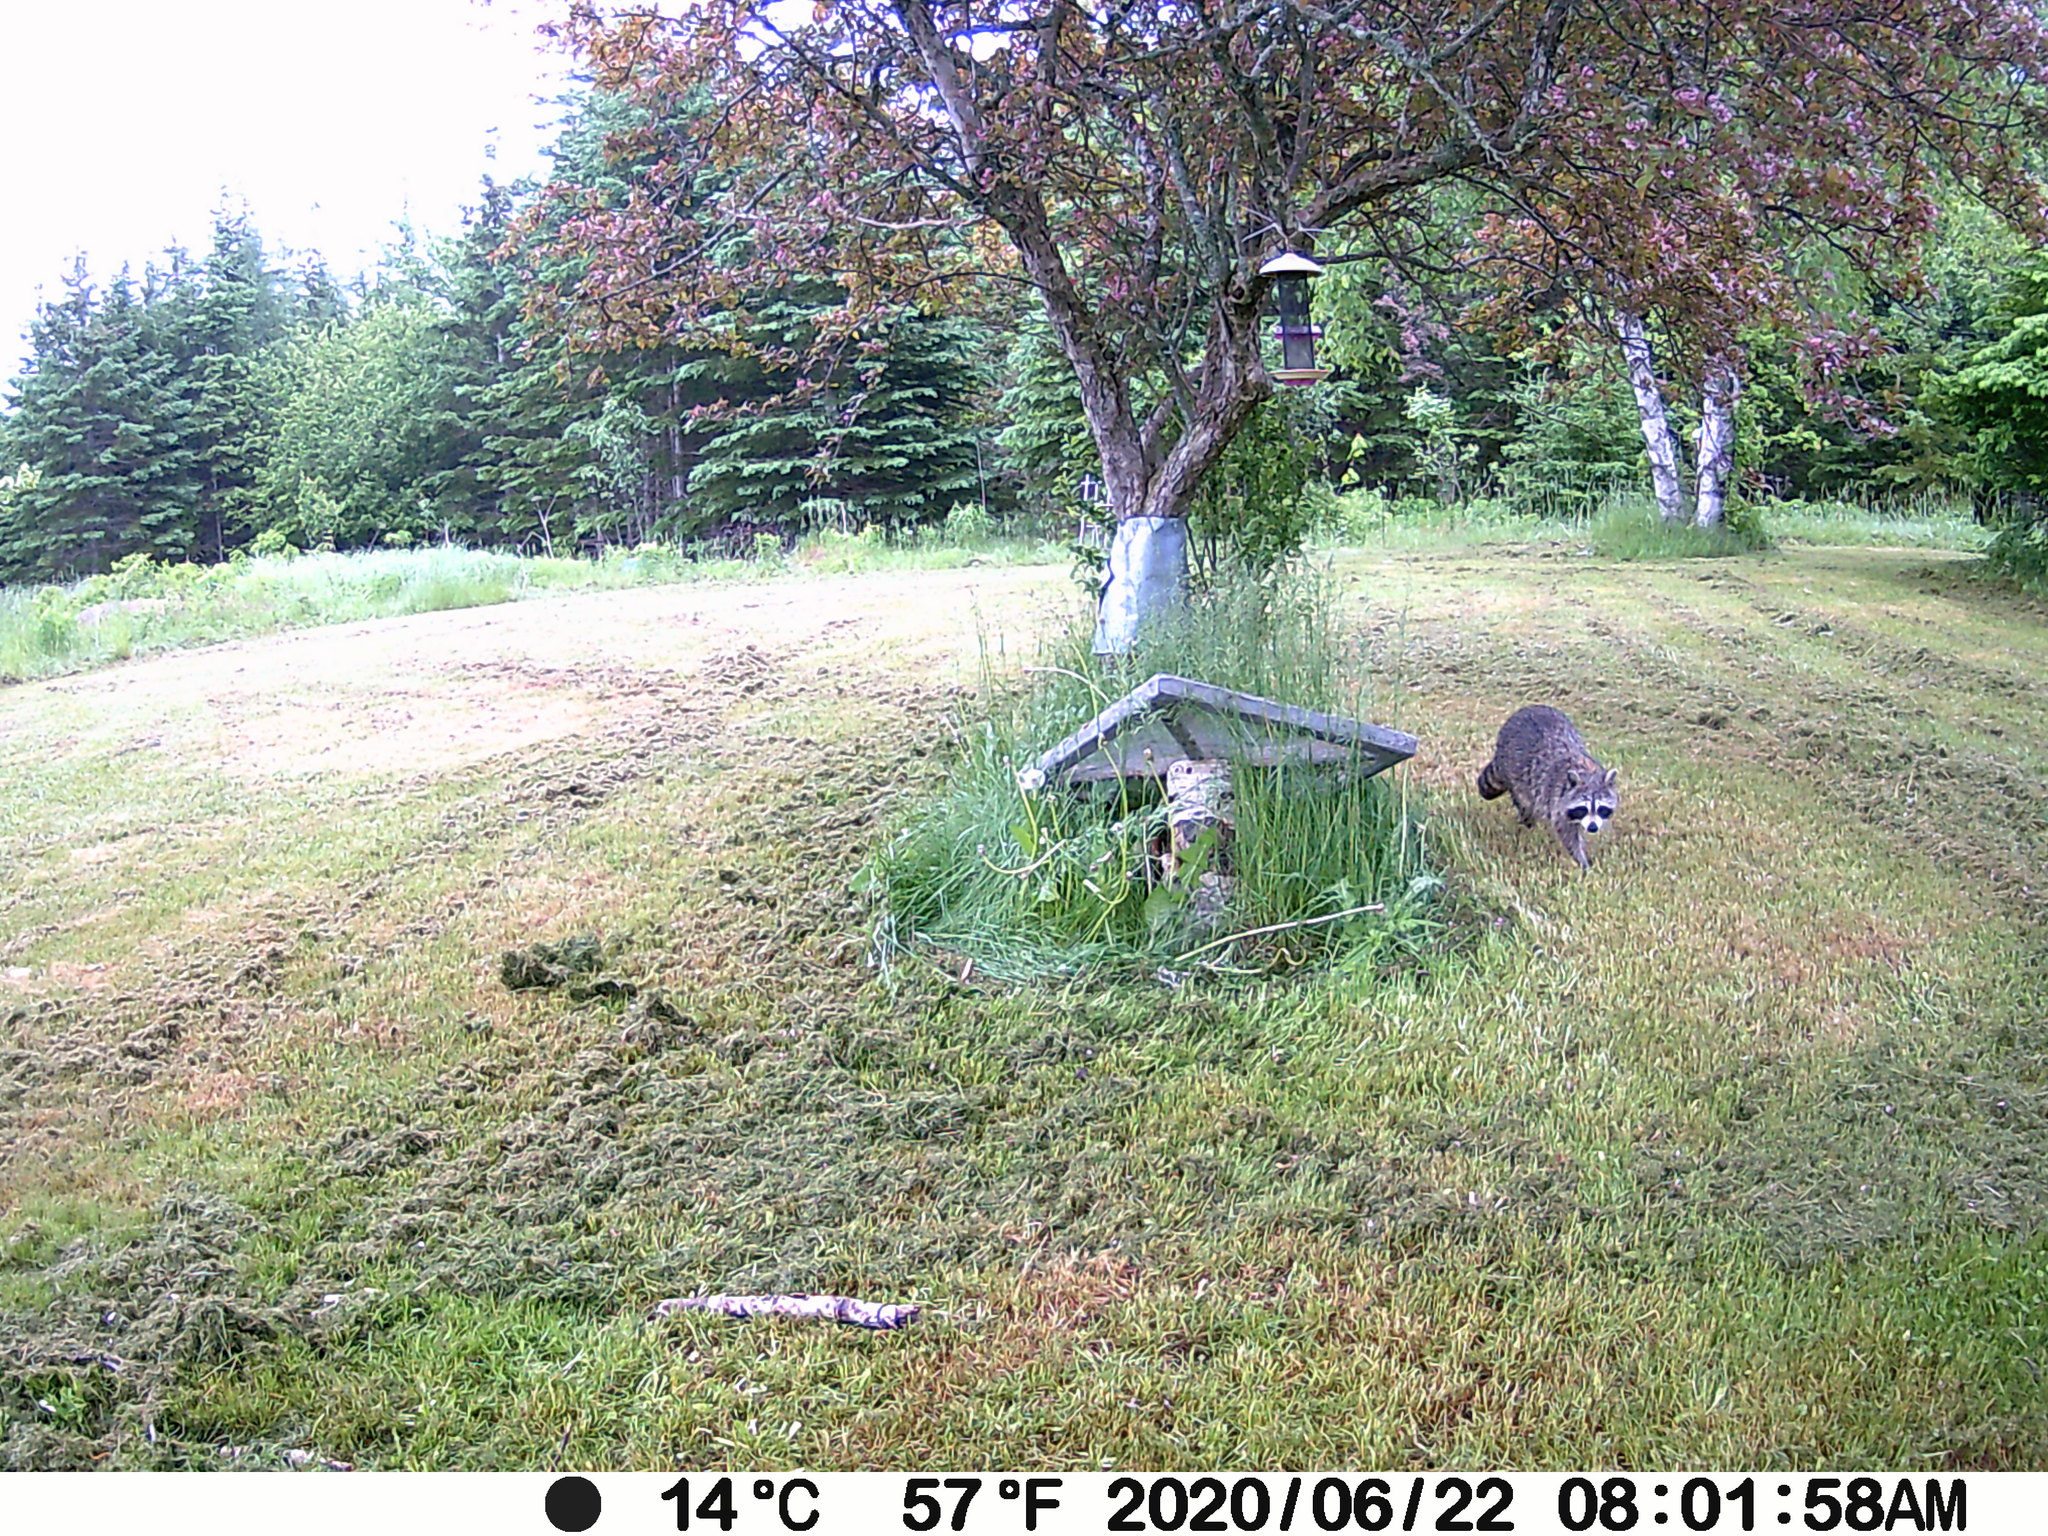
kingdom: Animalia
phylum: Chordata
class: Mammalia
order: Carnivora
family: Procyonidae
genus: Procyon
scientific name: Procyon lotor
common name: Raccoon
